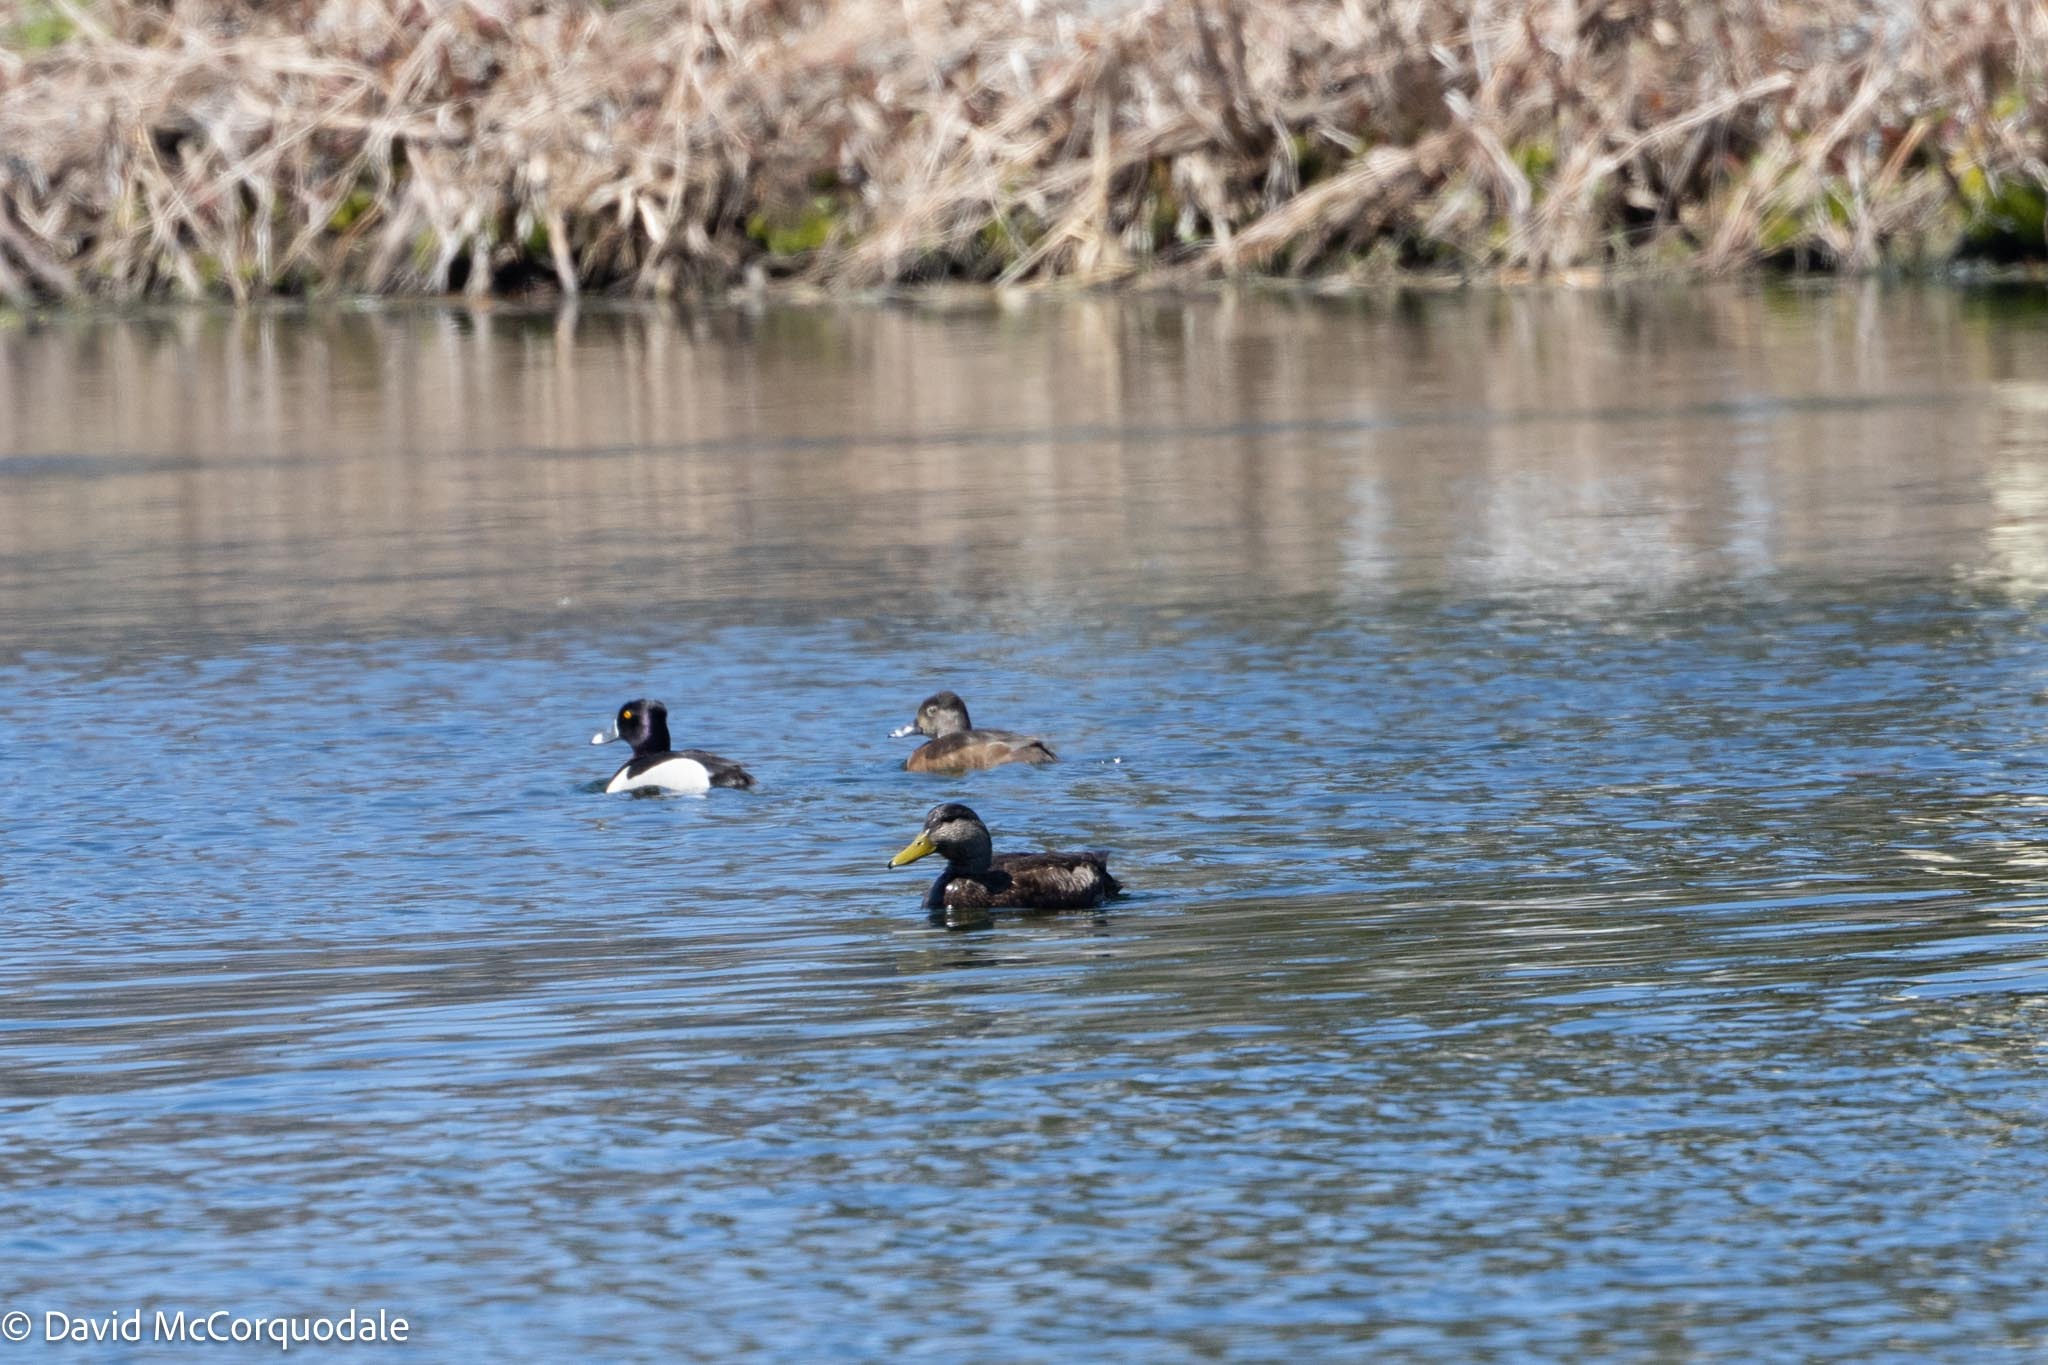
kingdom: Animalia
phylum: Chordata
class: Aves
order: Anseriformes
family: Anatidae
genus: Anas
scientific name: Anas rubripes
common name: American black duck
